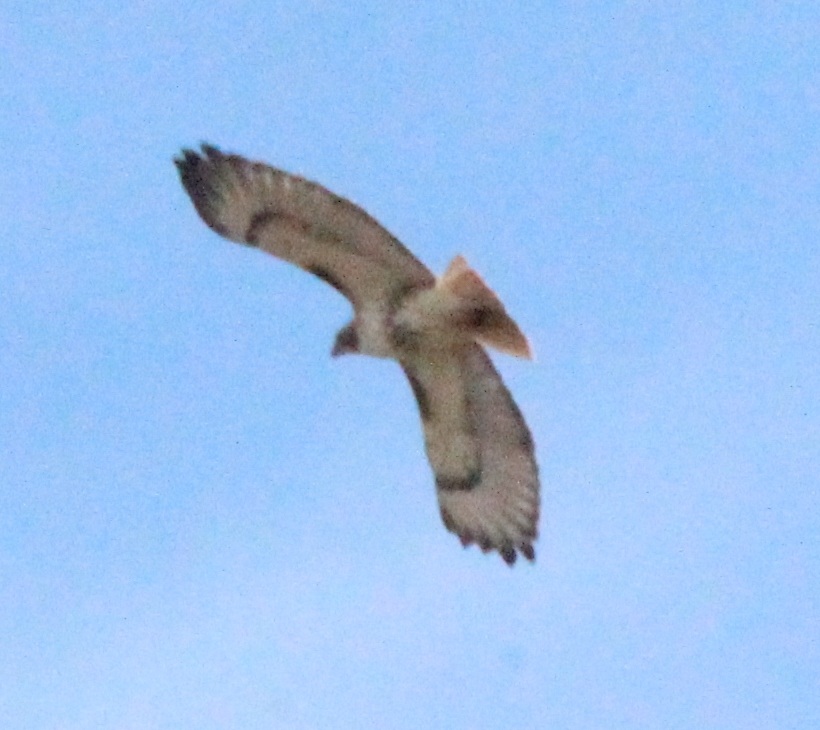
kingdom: Animalia
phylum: Chordata
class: Aves
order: Accipitriformes
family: Accipitridae
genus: Buteo
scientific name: Buteo jamaicensis
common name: Red-tailed hawk
